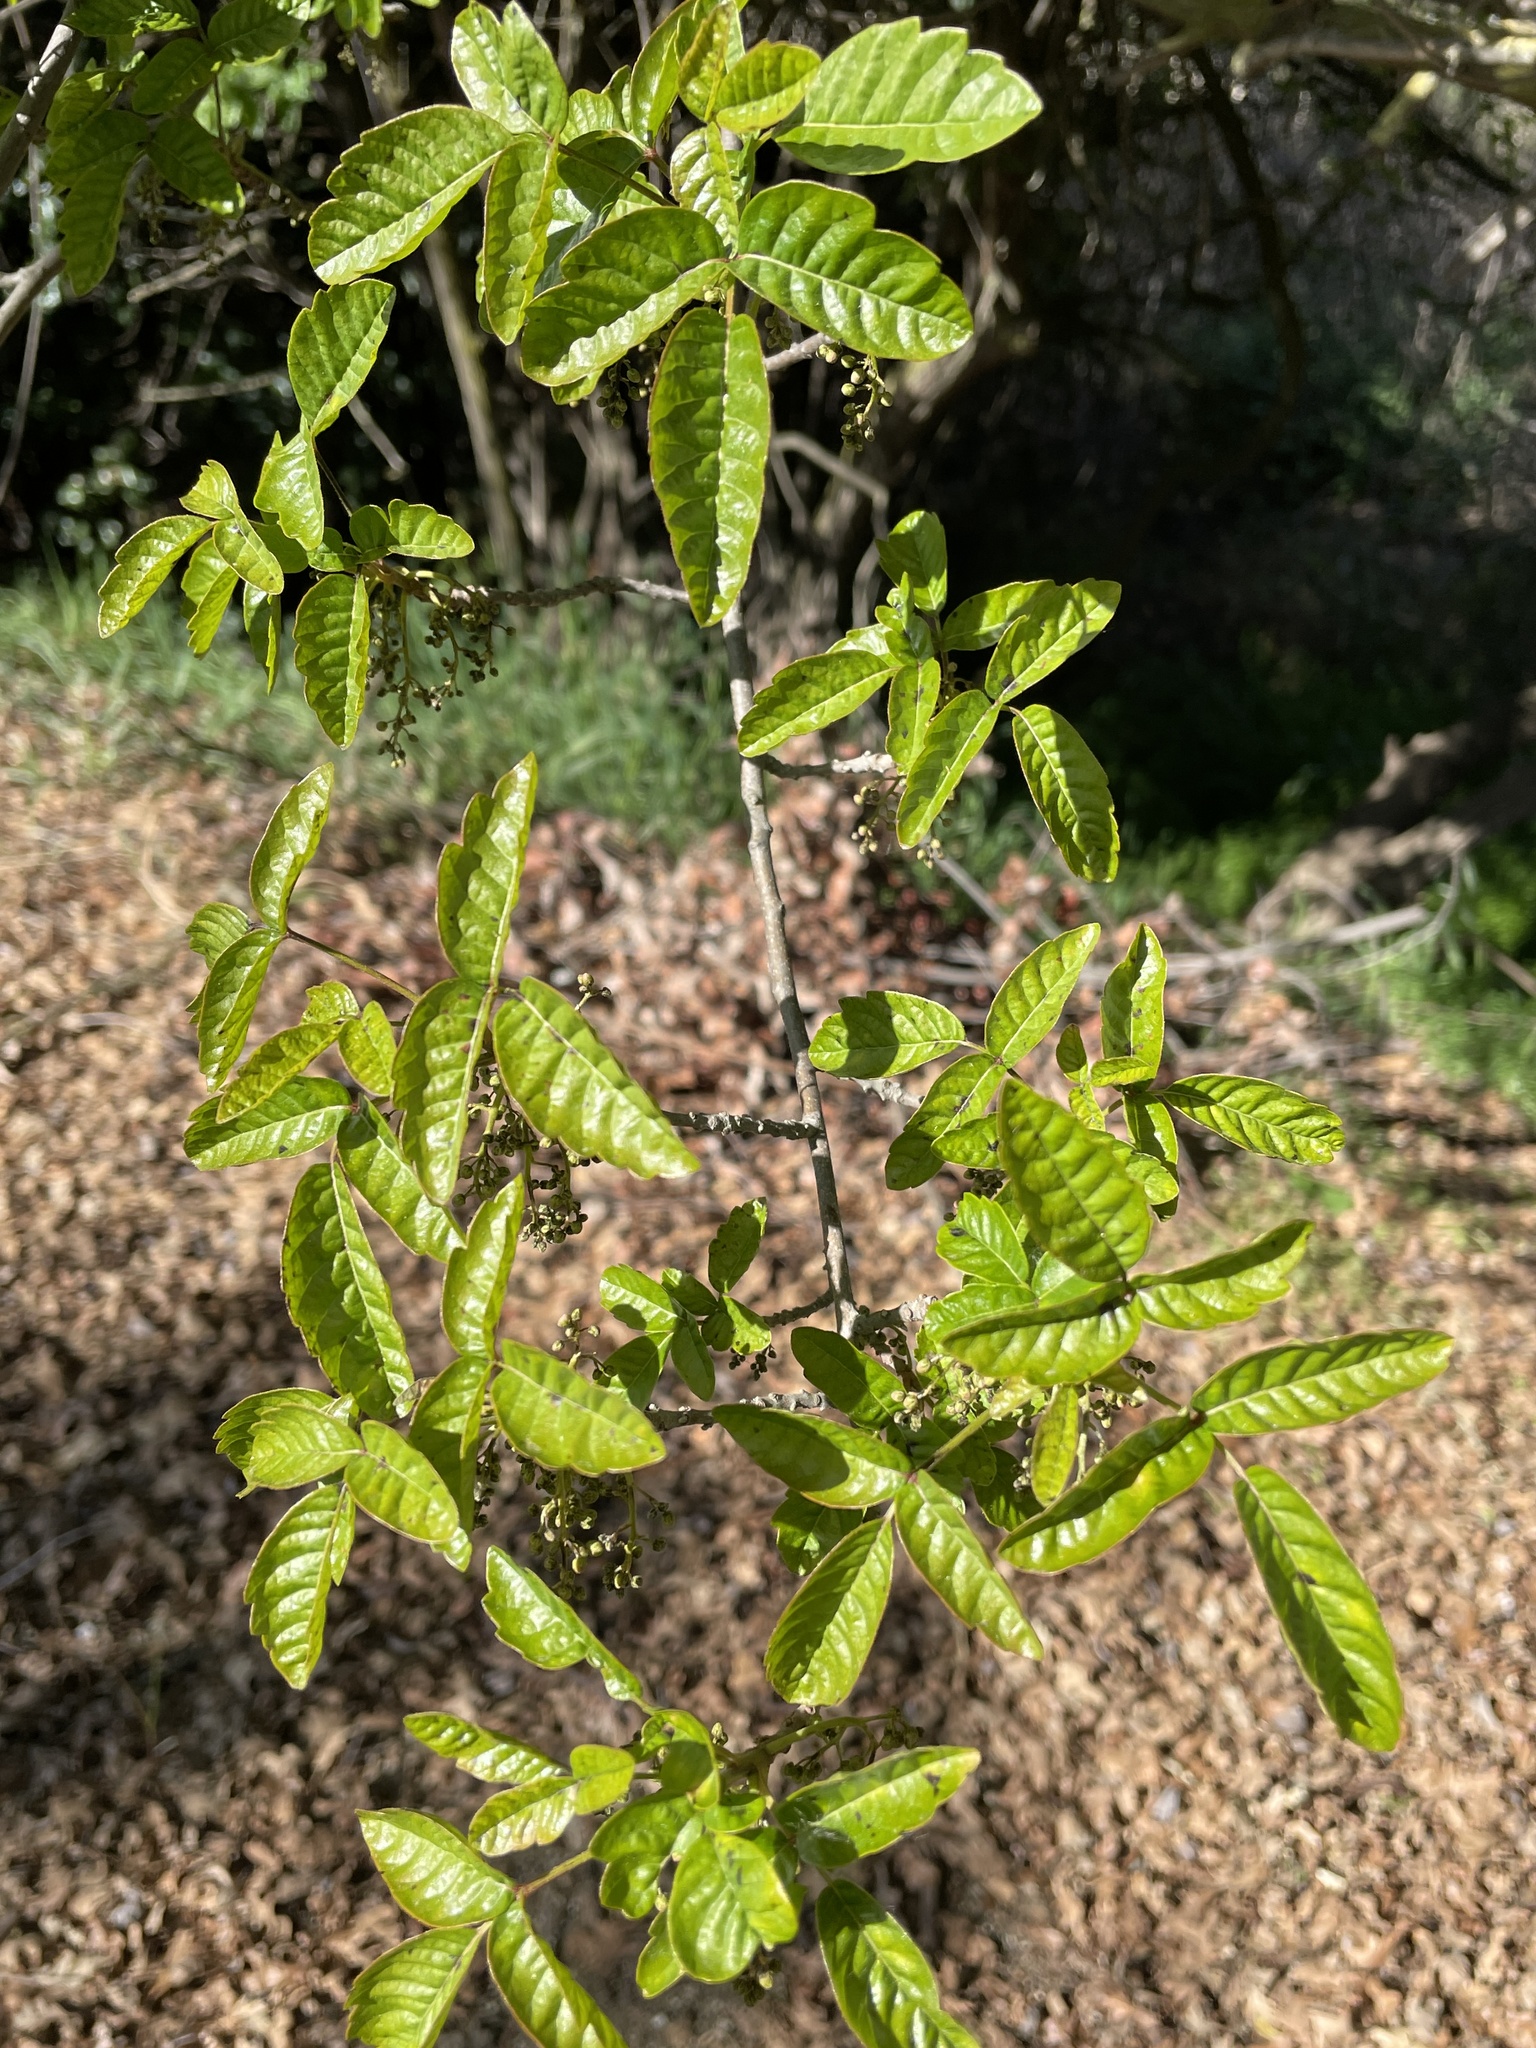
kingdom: Plantae
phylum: Tracheophyta
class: Magnoliopsida
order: Sapindales
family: Anacardiaceae
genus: Toxicodendron
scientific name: Toxicodendron diversilobum
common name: Pacific poison-oak
